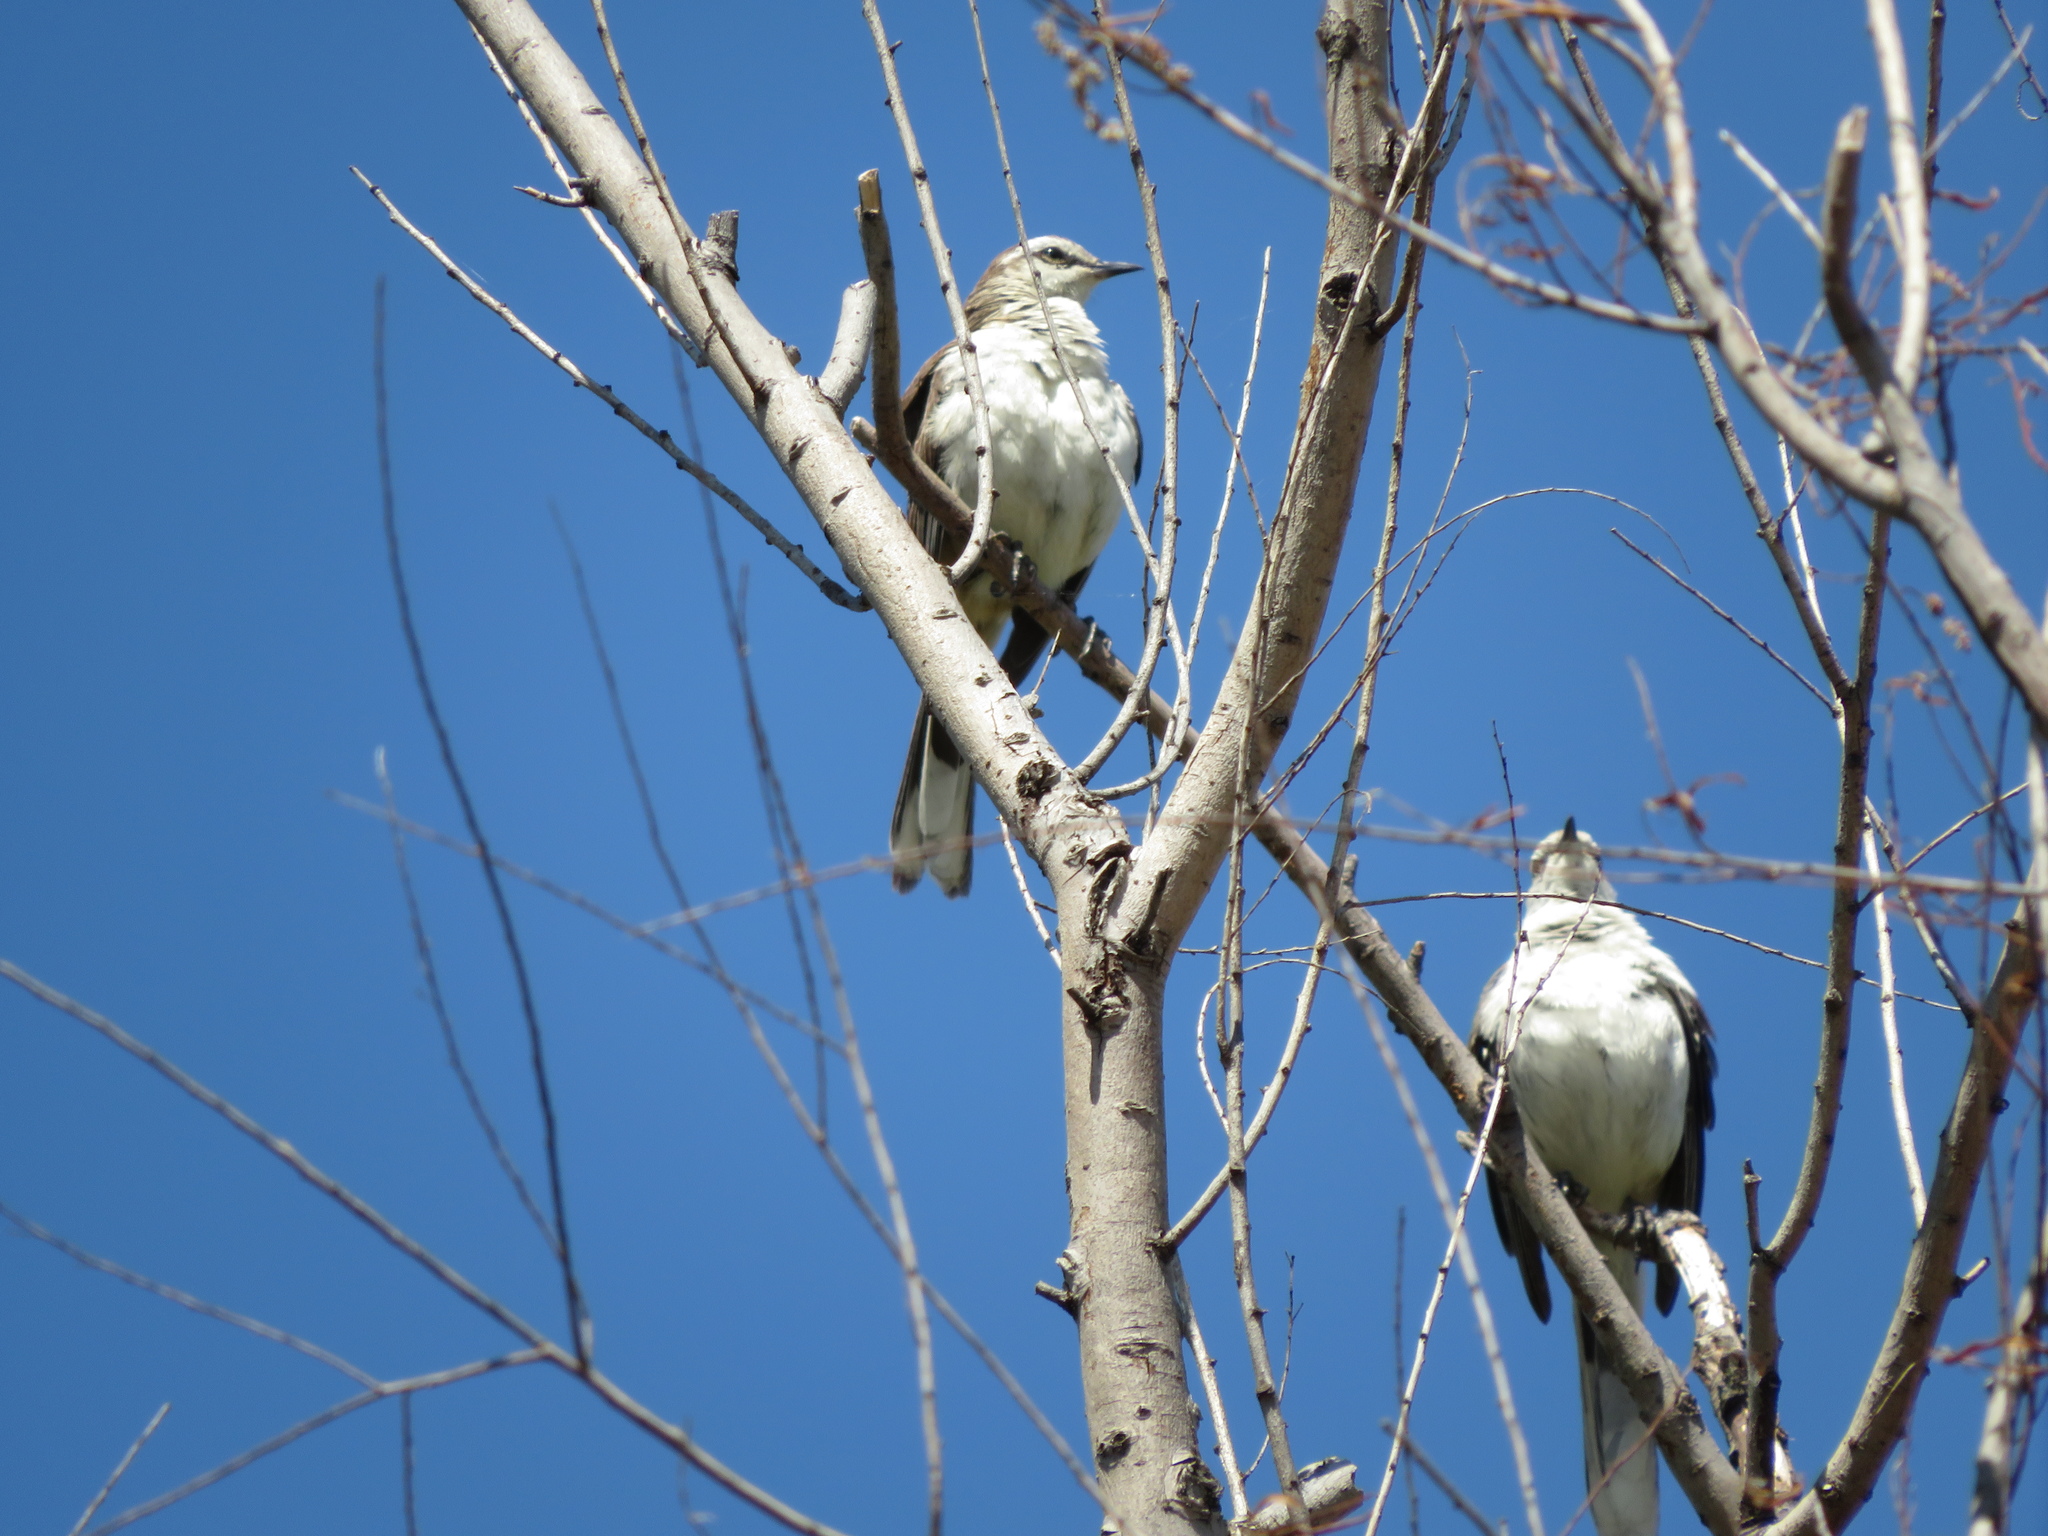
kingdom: Animalia
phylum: Chordata
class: Aves
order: Passeriformes
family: Mimidae
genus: Mimus
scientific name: Mimus saturninus
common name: Chalk-browed mockingbird
